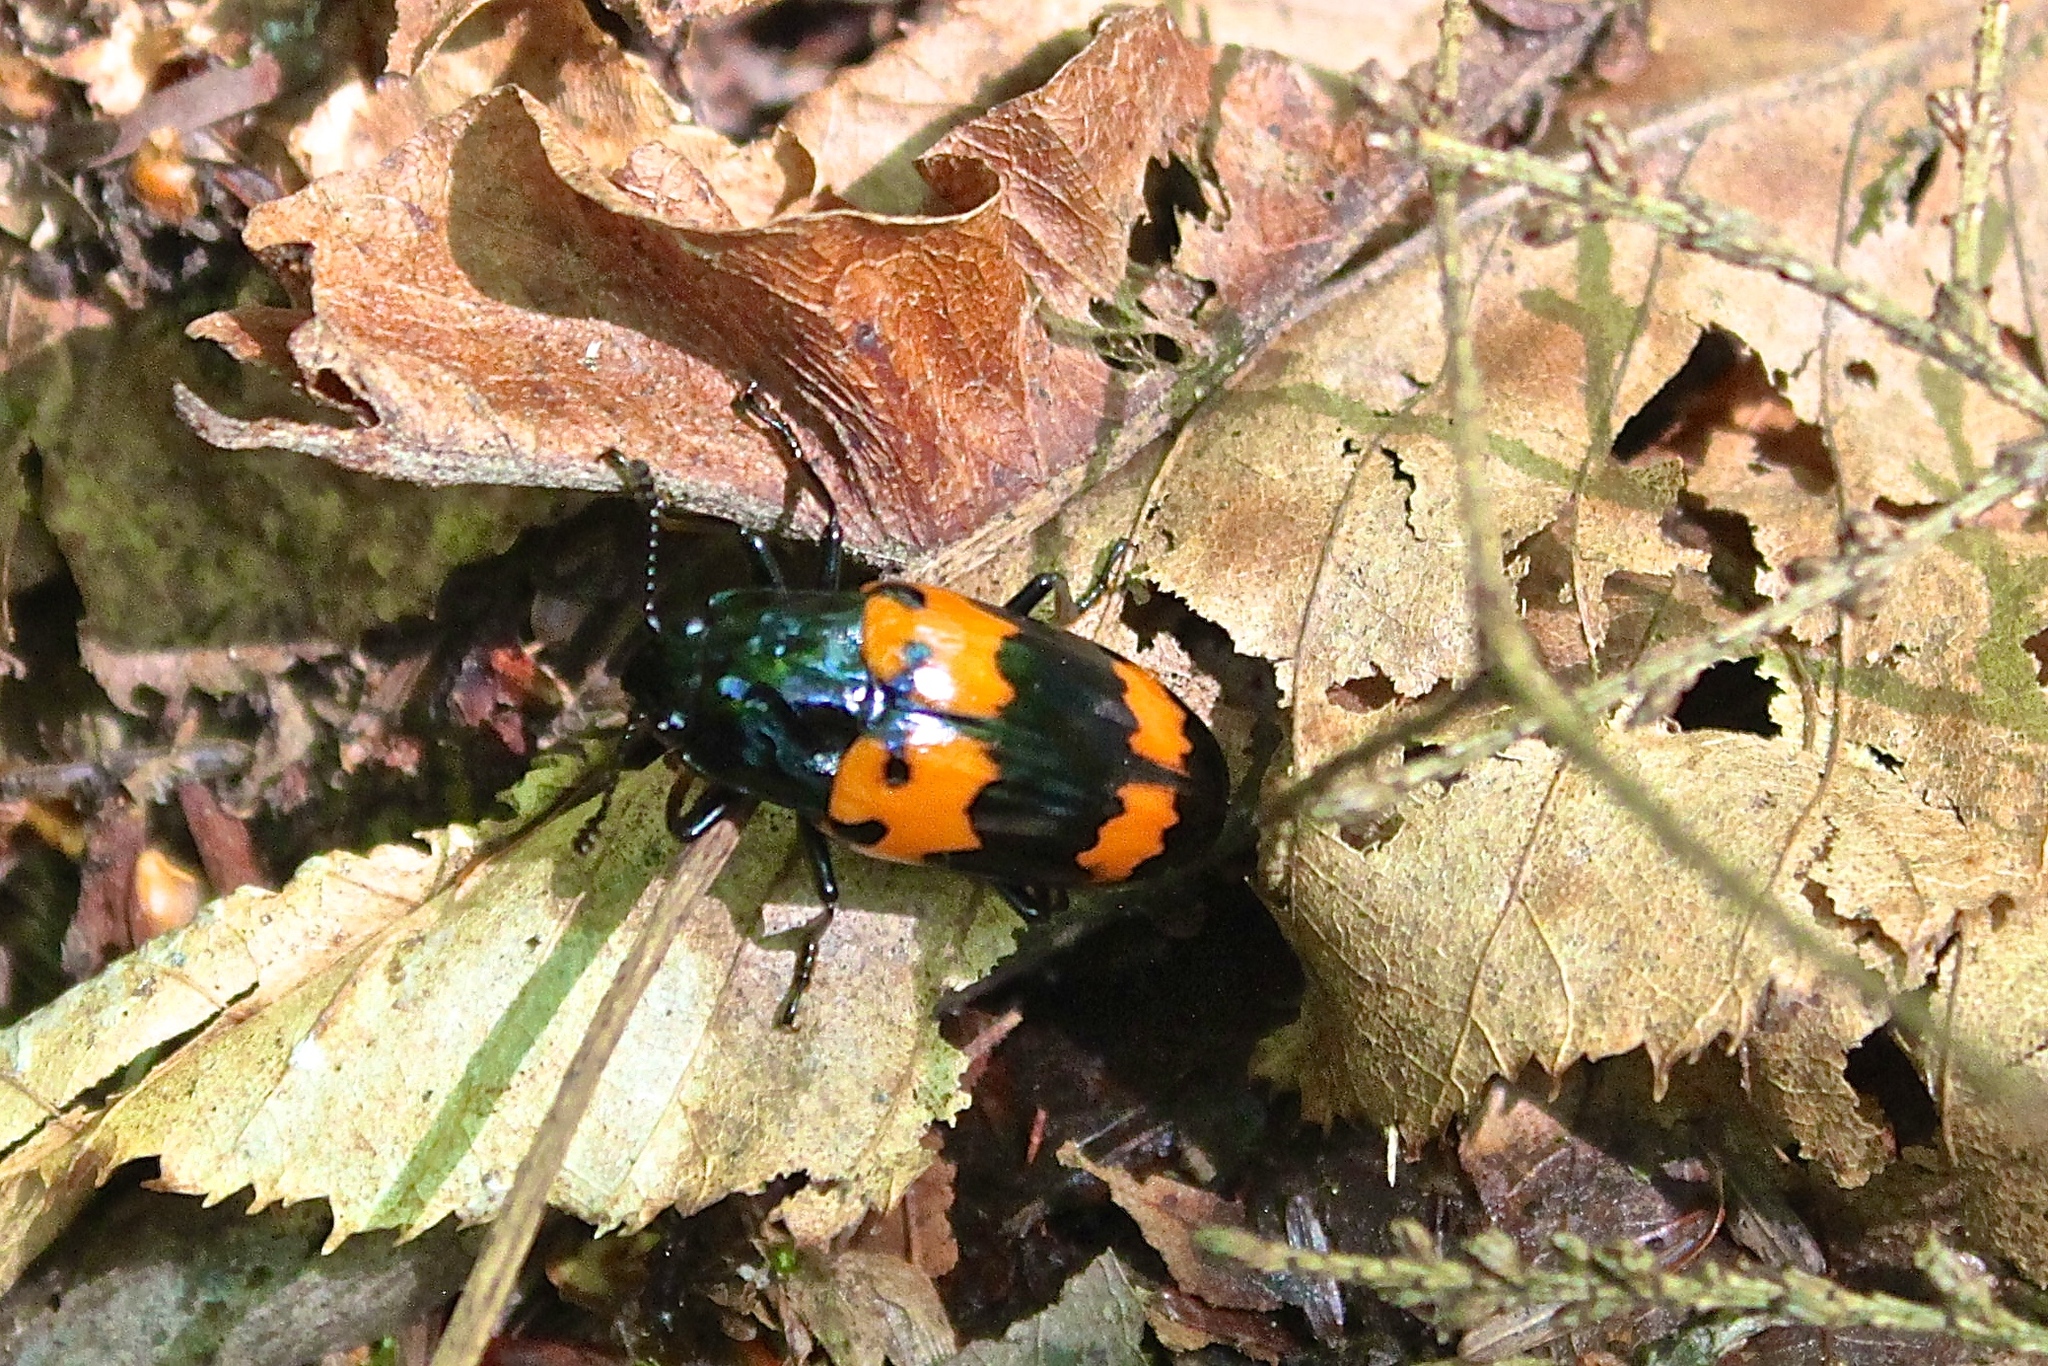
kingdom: Animalia
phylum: Arthropoda
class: Insecta
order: Coleoptera
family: Erotylidae
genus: Megalodacne
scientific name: Megalodacne heros
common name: Pleasing fungus beetle
